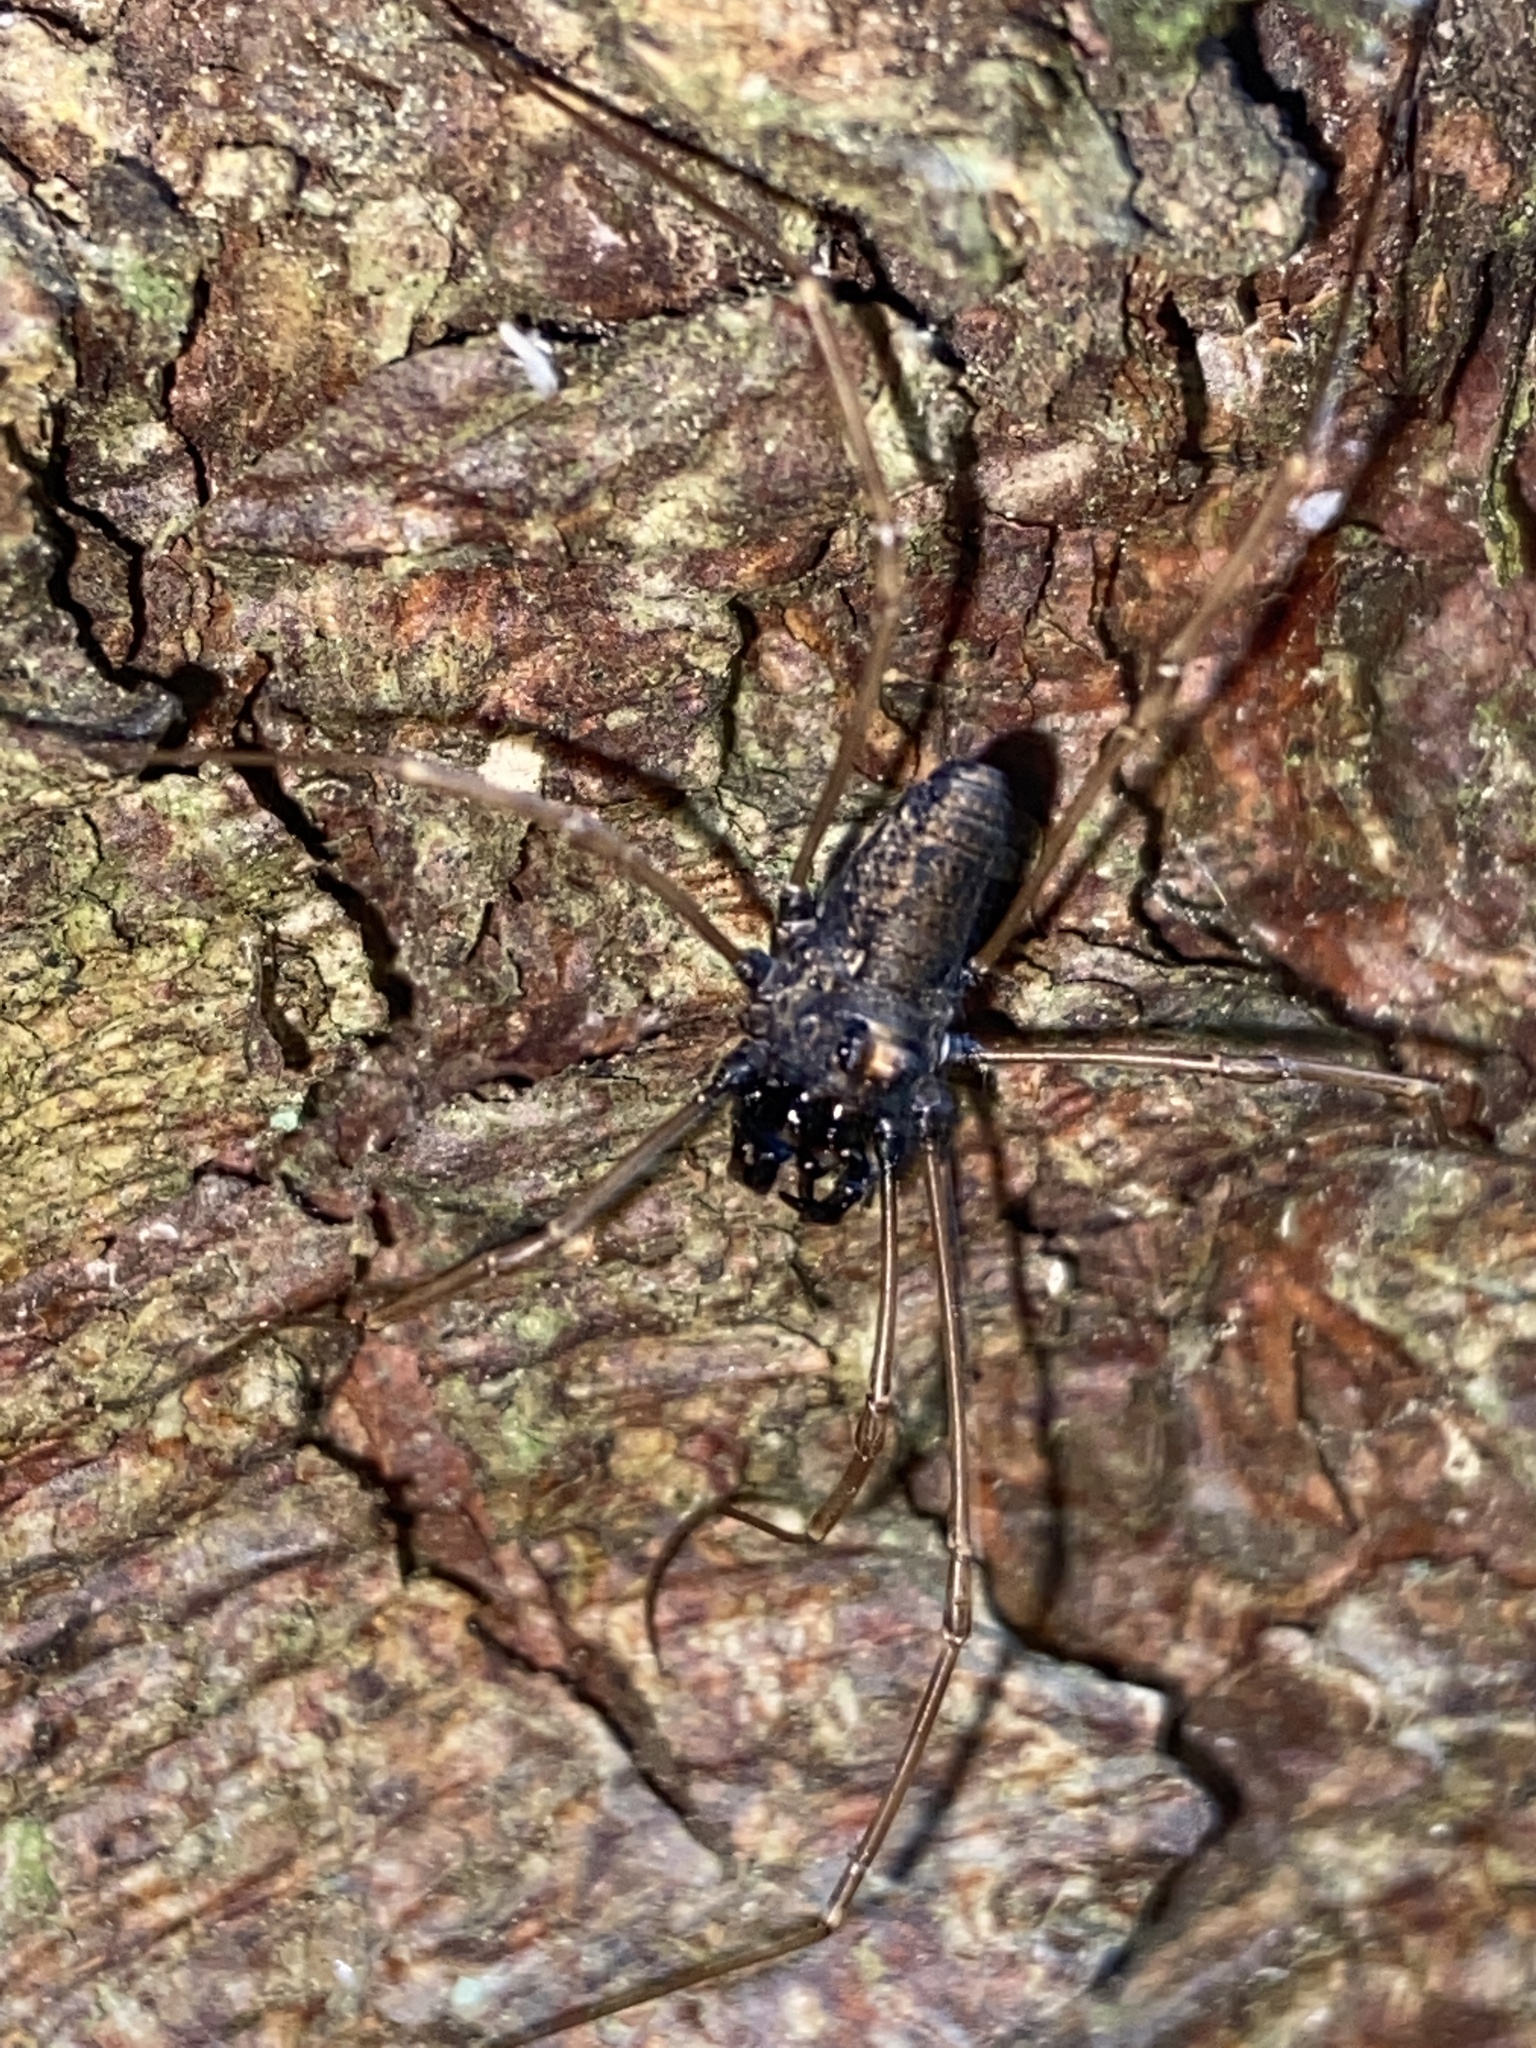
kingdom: Animalia
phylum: Arthropoda
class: Arachnida
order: Opiliones
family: Phalangiidae
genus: Platybunus
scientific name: Platybunus pinetorum
